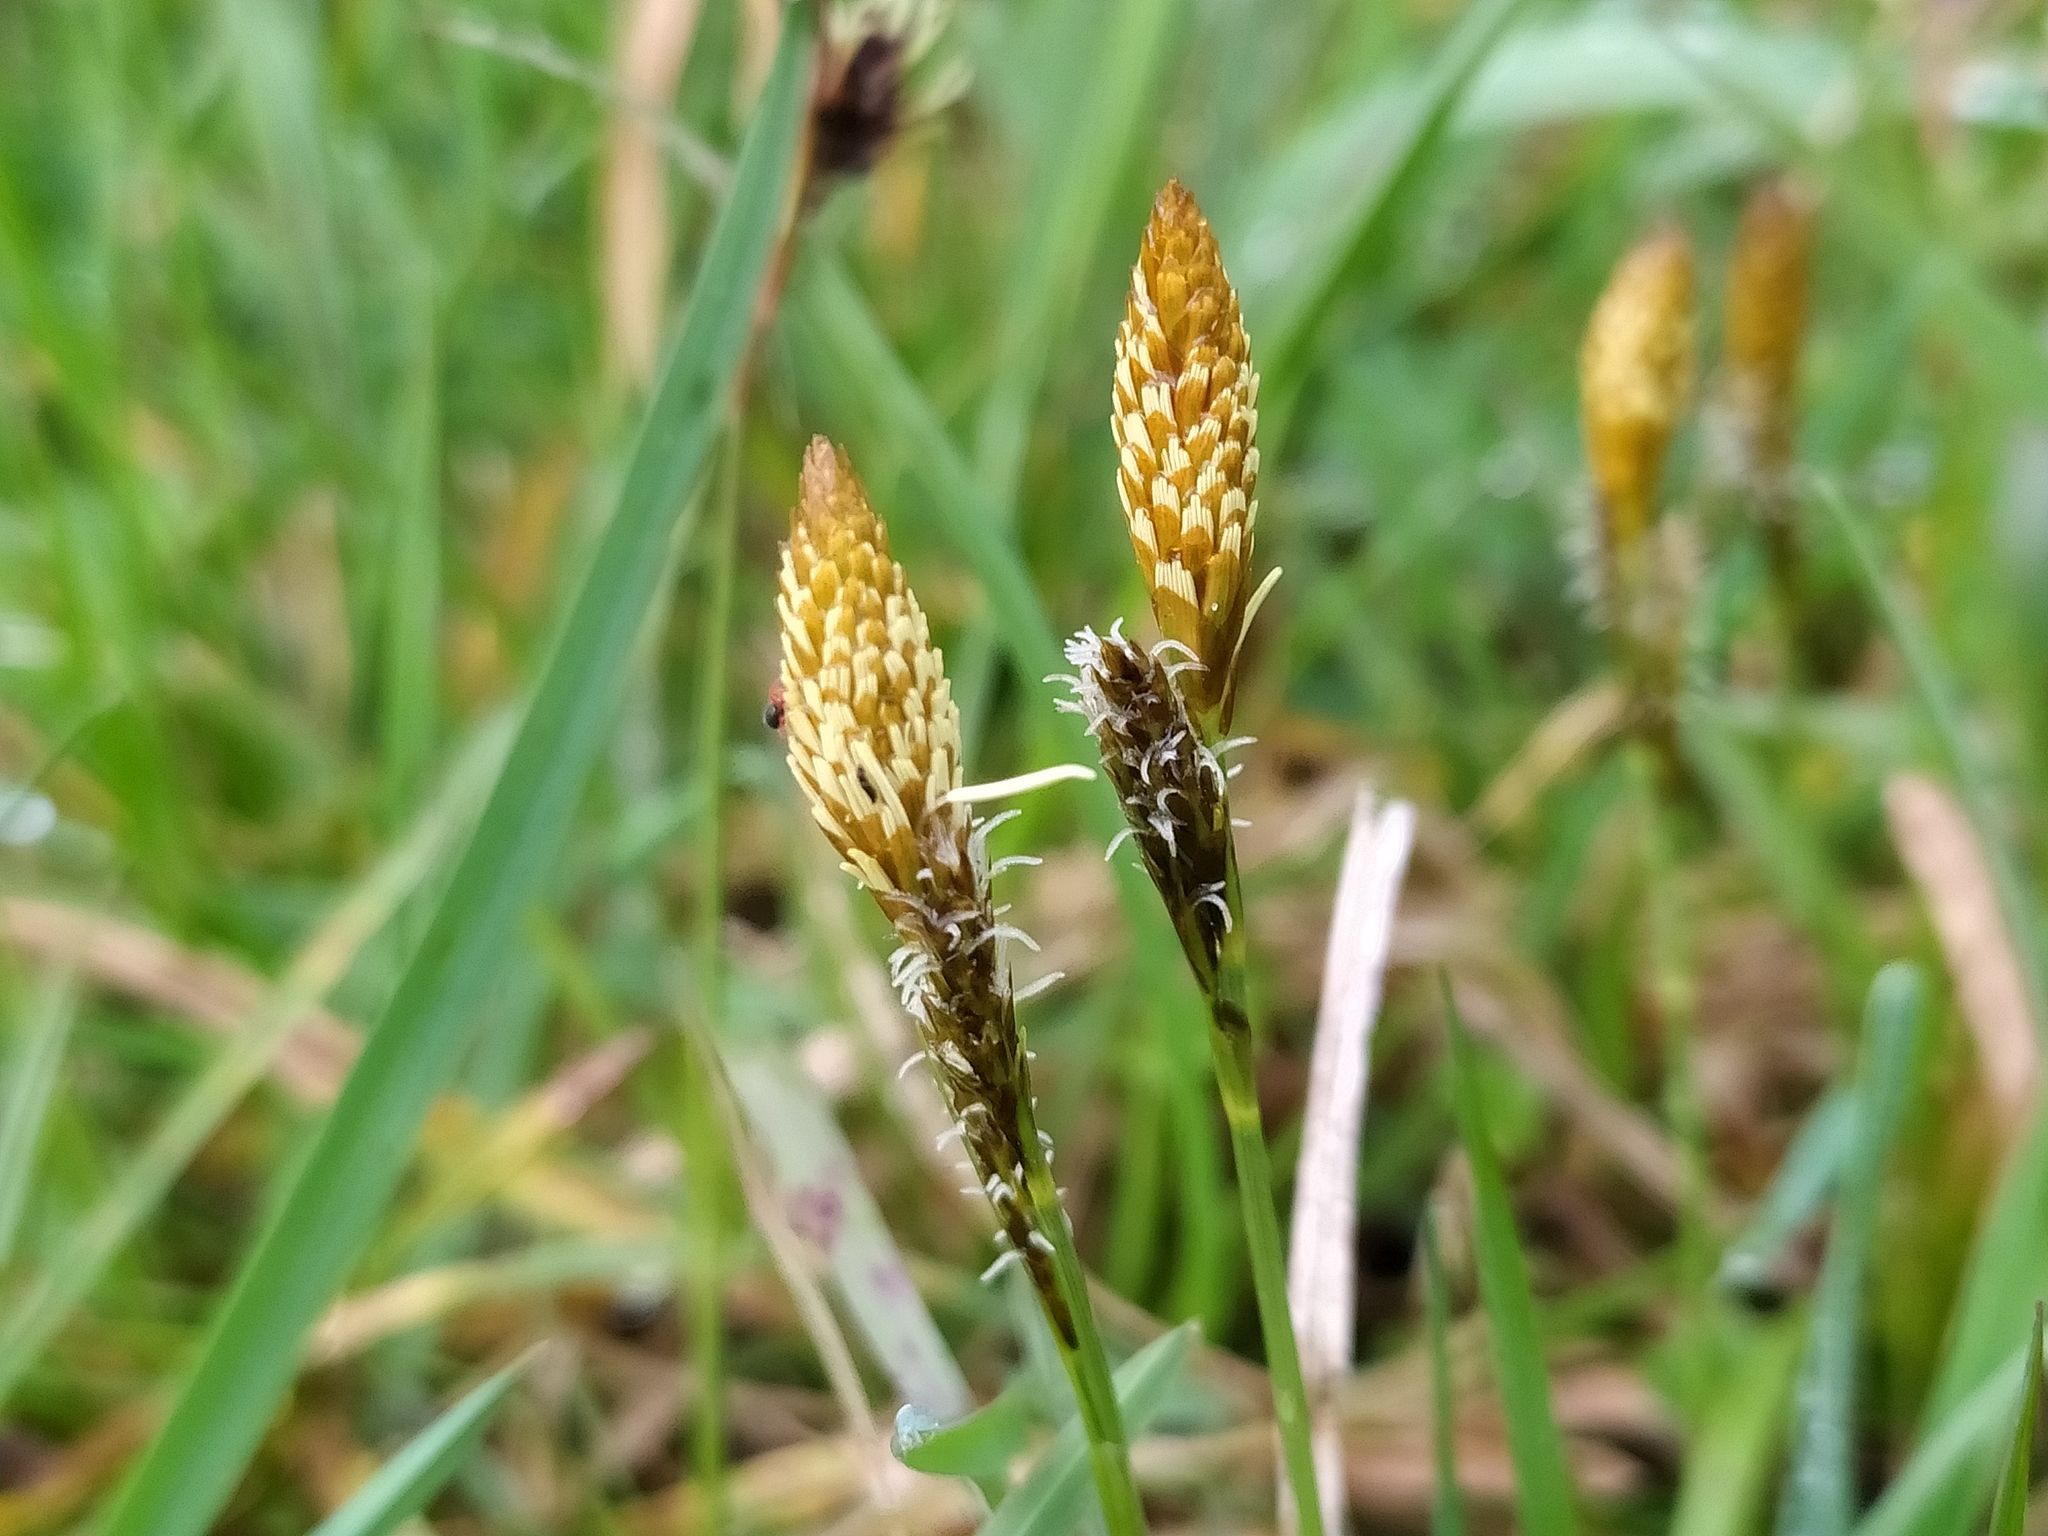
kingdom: Plantae
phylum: Tracheophyta
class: Liliopsida
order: Poales
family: Cyperaceae
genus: Carex
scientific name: Carex caryophyllea
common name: Spring sedge
